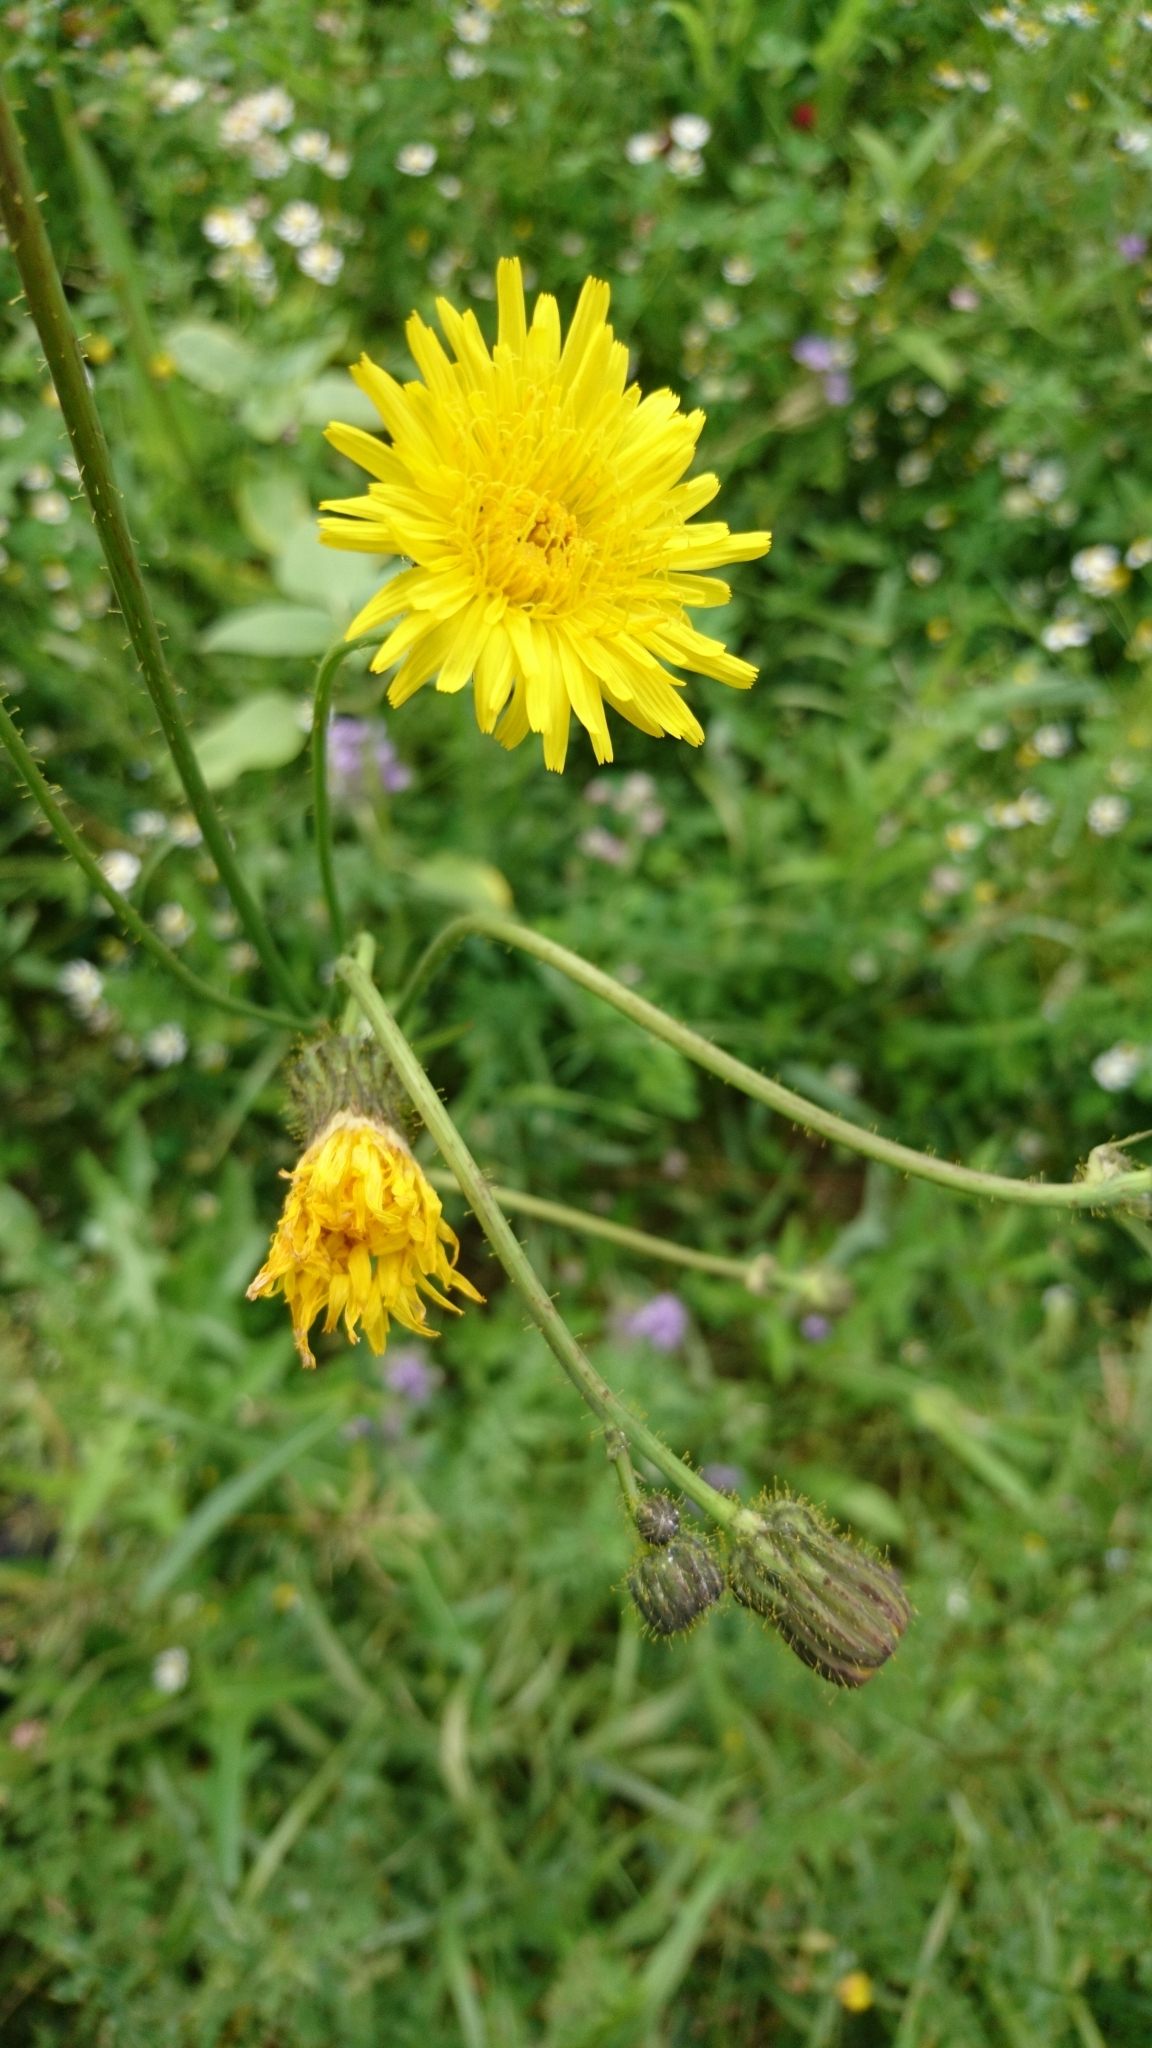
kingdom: Plantae
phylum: Tracheophyta
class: Magnoliopsida
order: Asterales
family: Asteraceae
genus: Sonchus
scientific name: Sonchus arvensis
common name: Perennial sow-thistle
